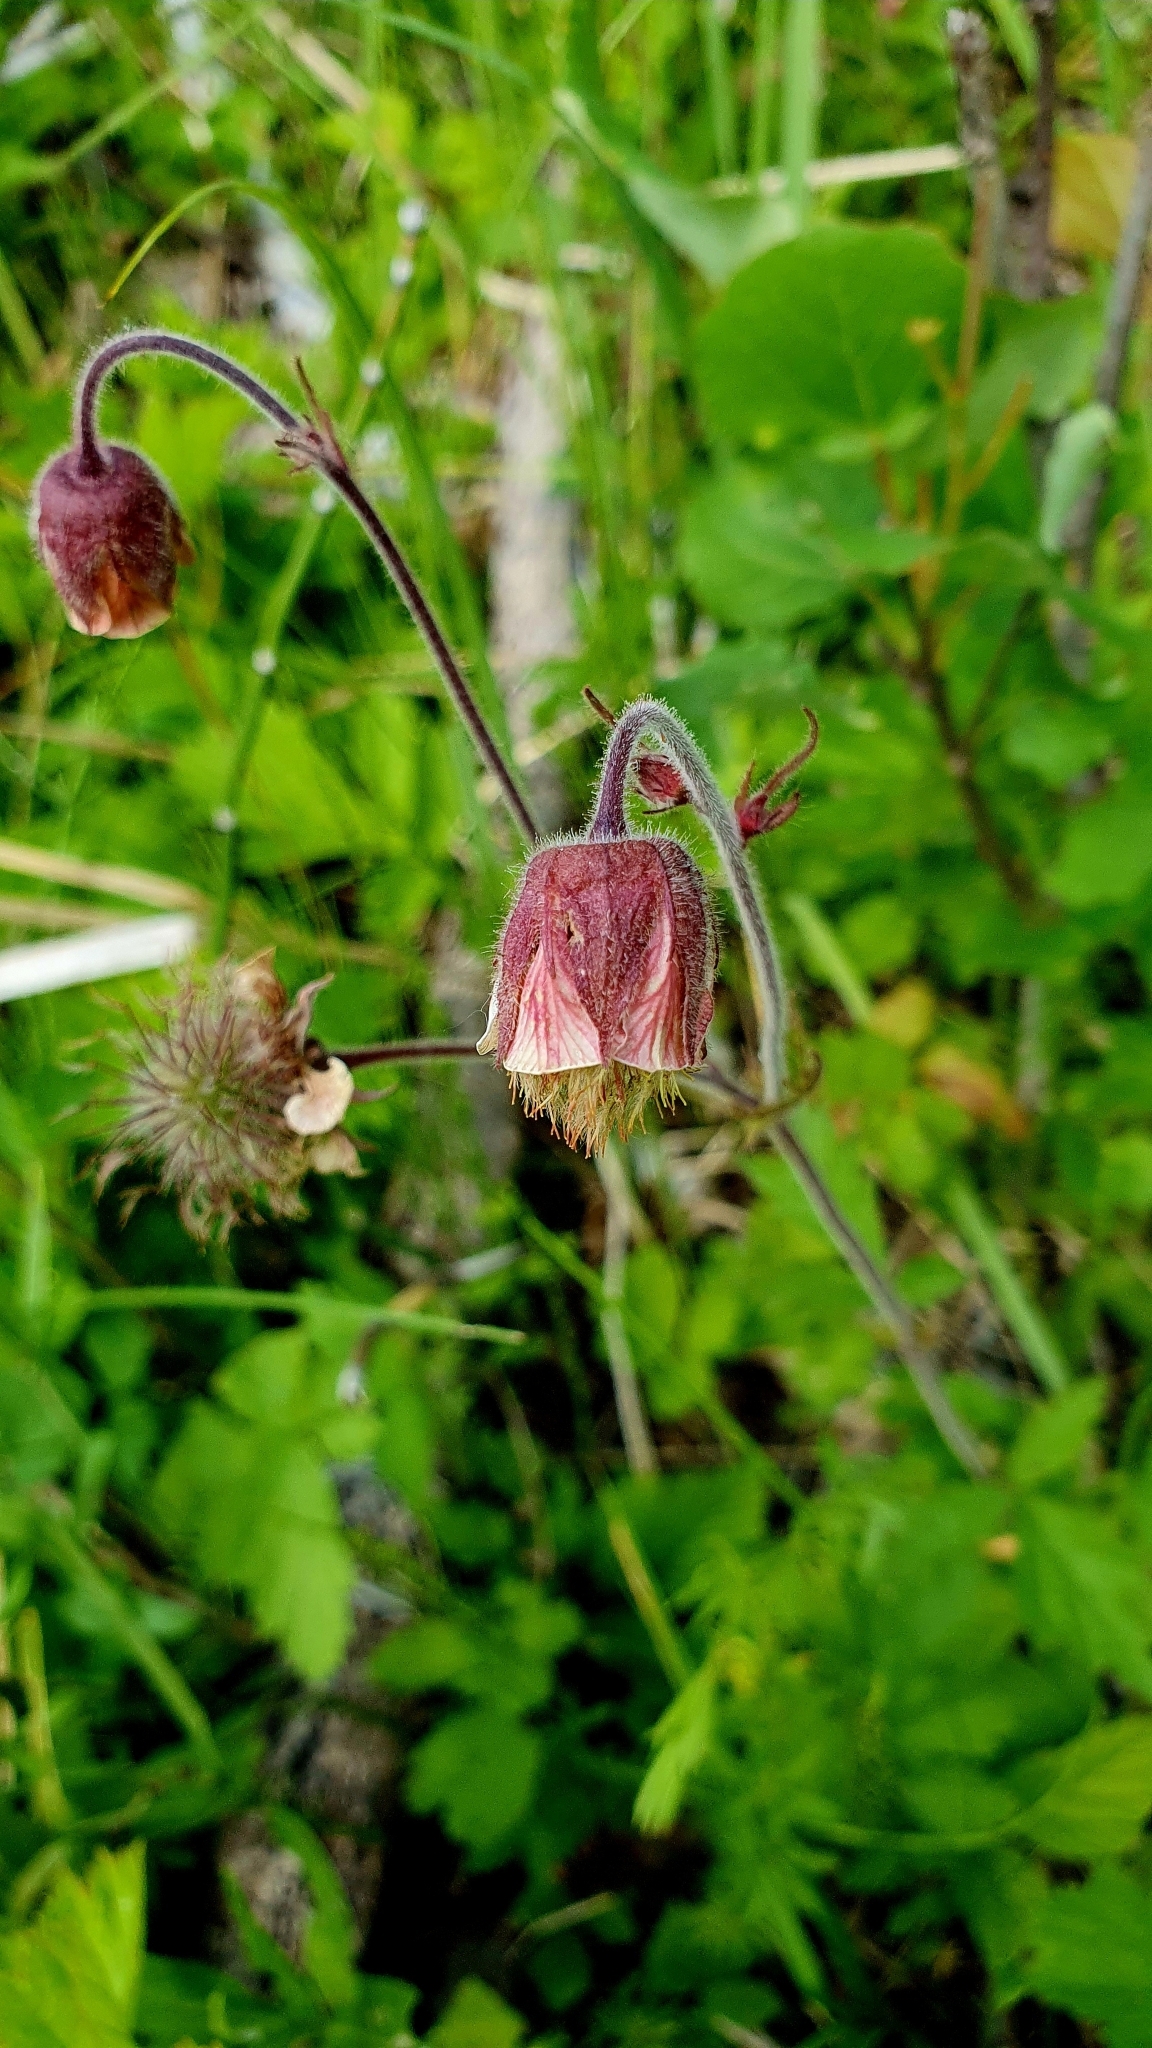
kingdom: Plantae
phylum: Tracheophyta
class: Magnoliopsida
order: Rosales
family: Rosaceae
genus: Geum
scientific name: Geum rivale
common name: Water avens
